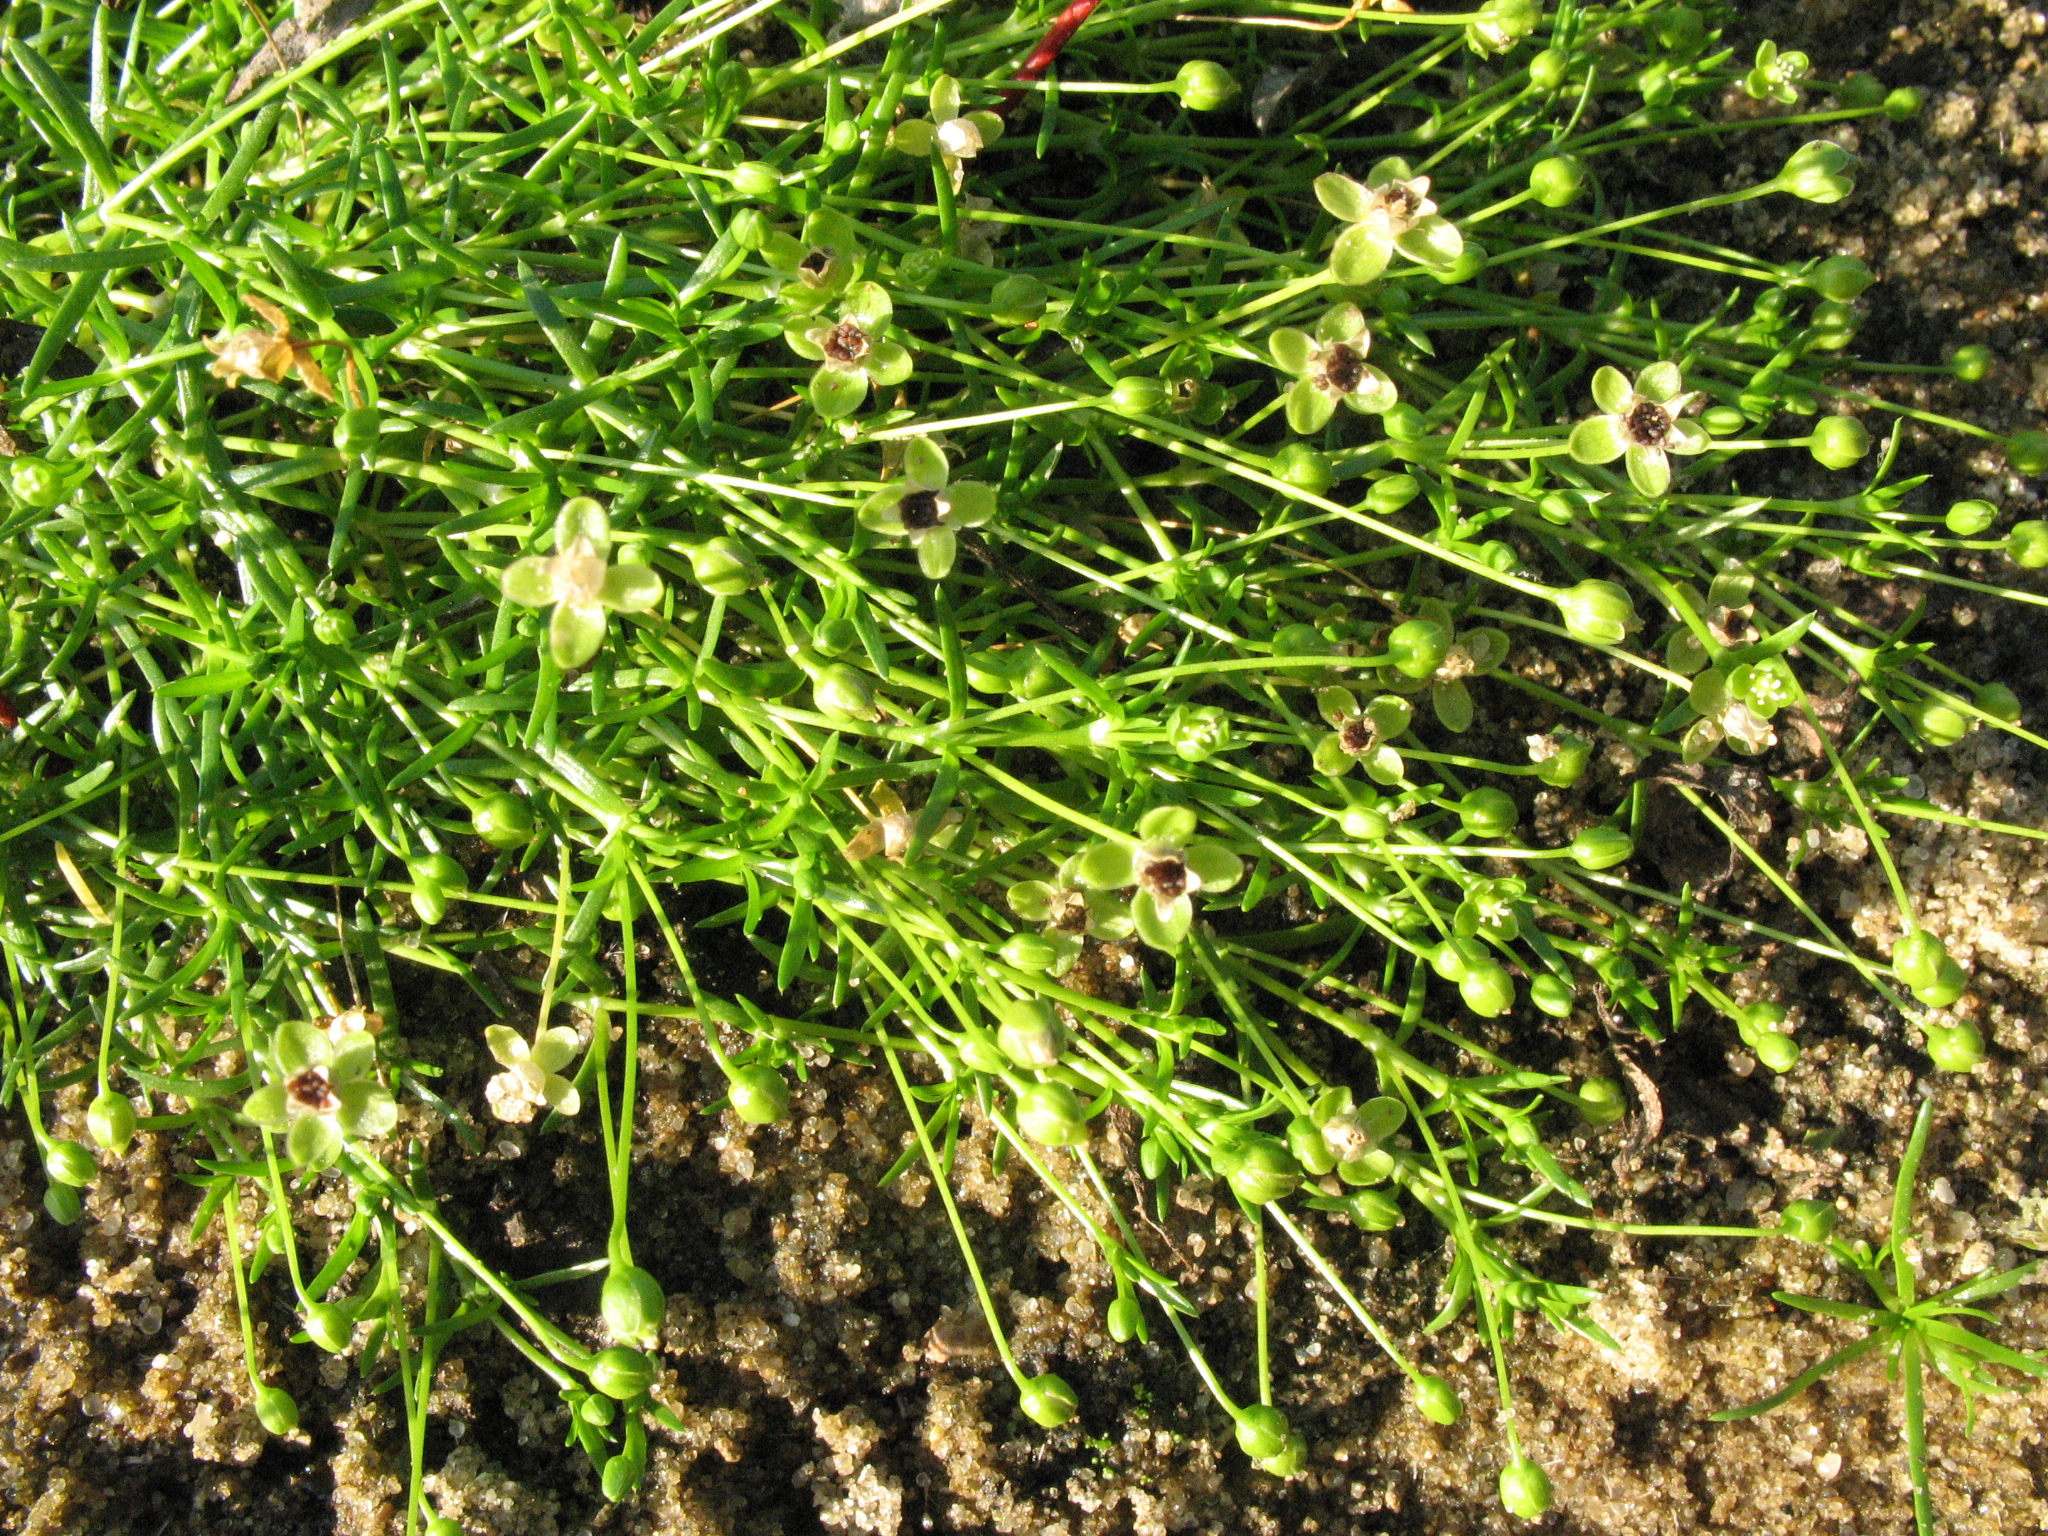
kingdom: Plantae
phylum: Tracheophyta
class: Magnoliopsida
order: Caryophyllales
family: Caryophyllaceae
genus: Sagina
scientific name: Sagina procumbens
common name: Procumbent pearlwort
